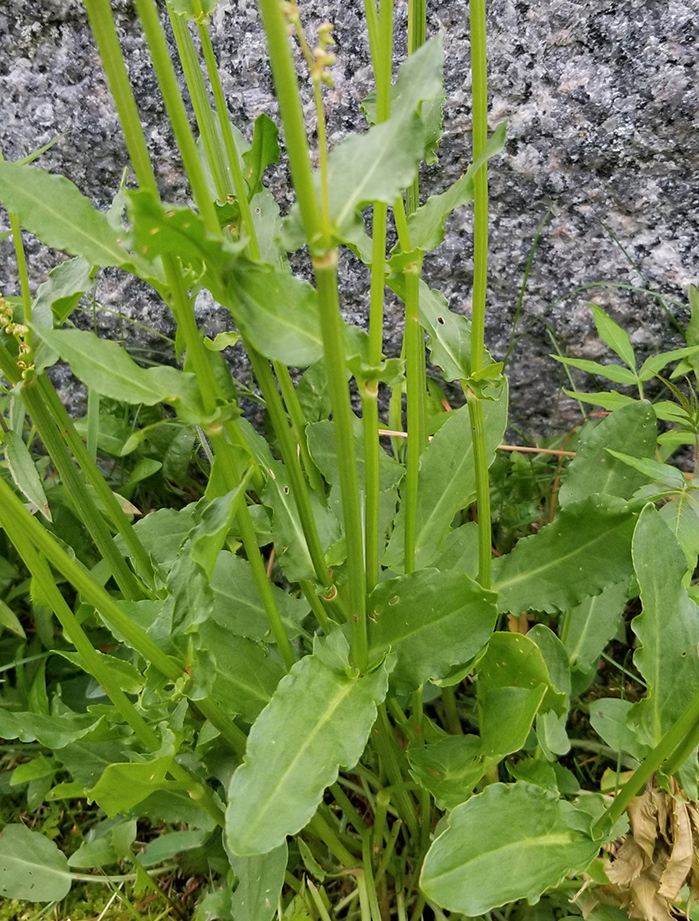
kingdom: Plantae
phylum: Tracheophyta
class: Magnoliopsida
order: Caryophyllales
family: Polygonaceae
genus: Rumex
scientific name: Rumex acetosa
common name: Garden sorrel
